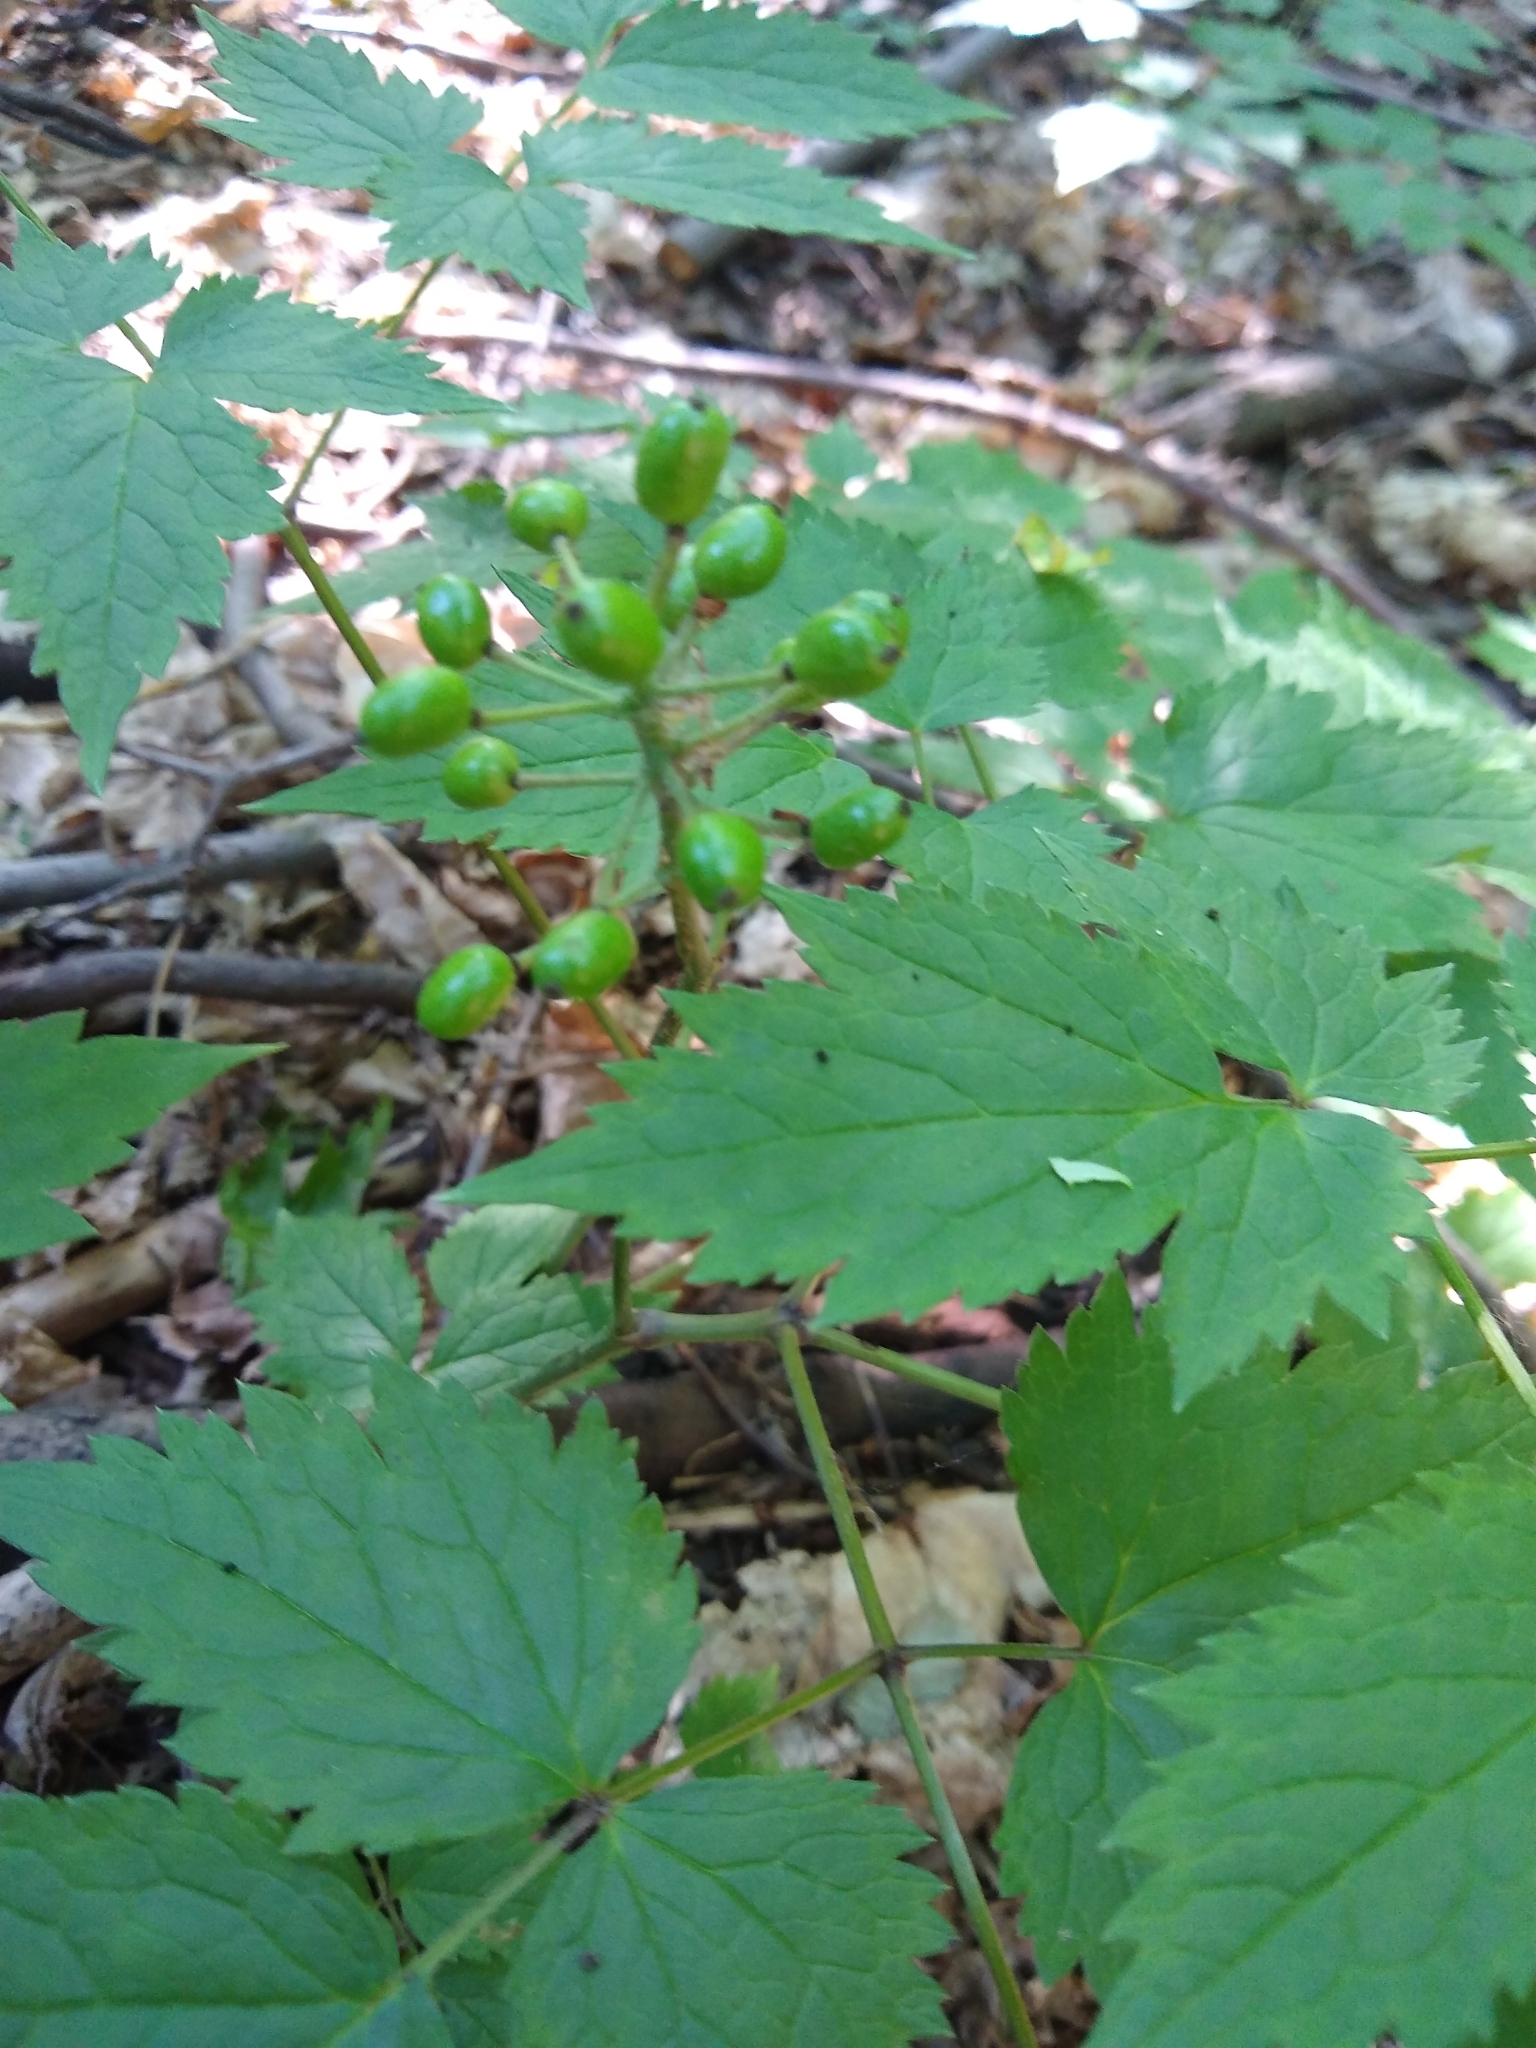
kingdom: Plantae
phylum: Tracheophyta
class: Magnoliopsida
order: Ranunculales
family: Ranunculaceae
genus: Actaea
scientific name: Actaea rubra
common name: Red baneberry
